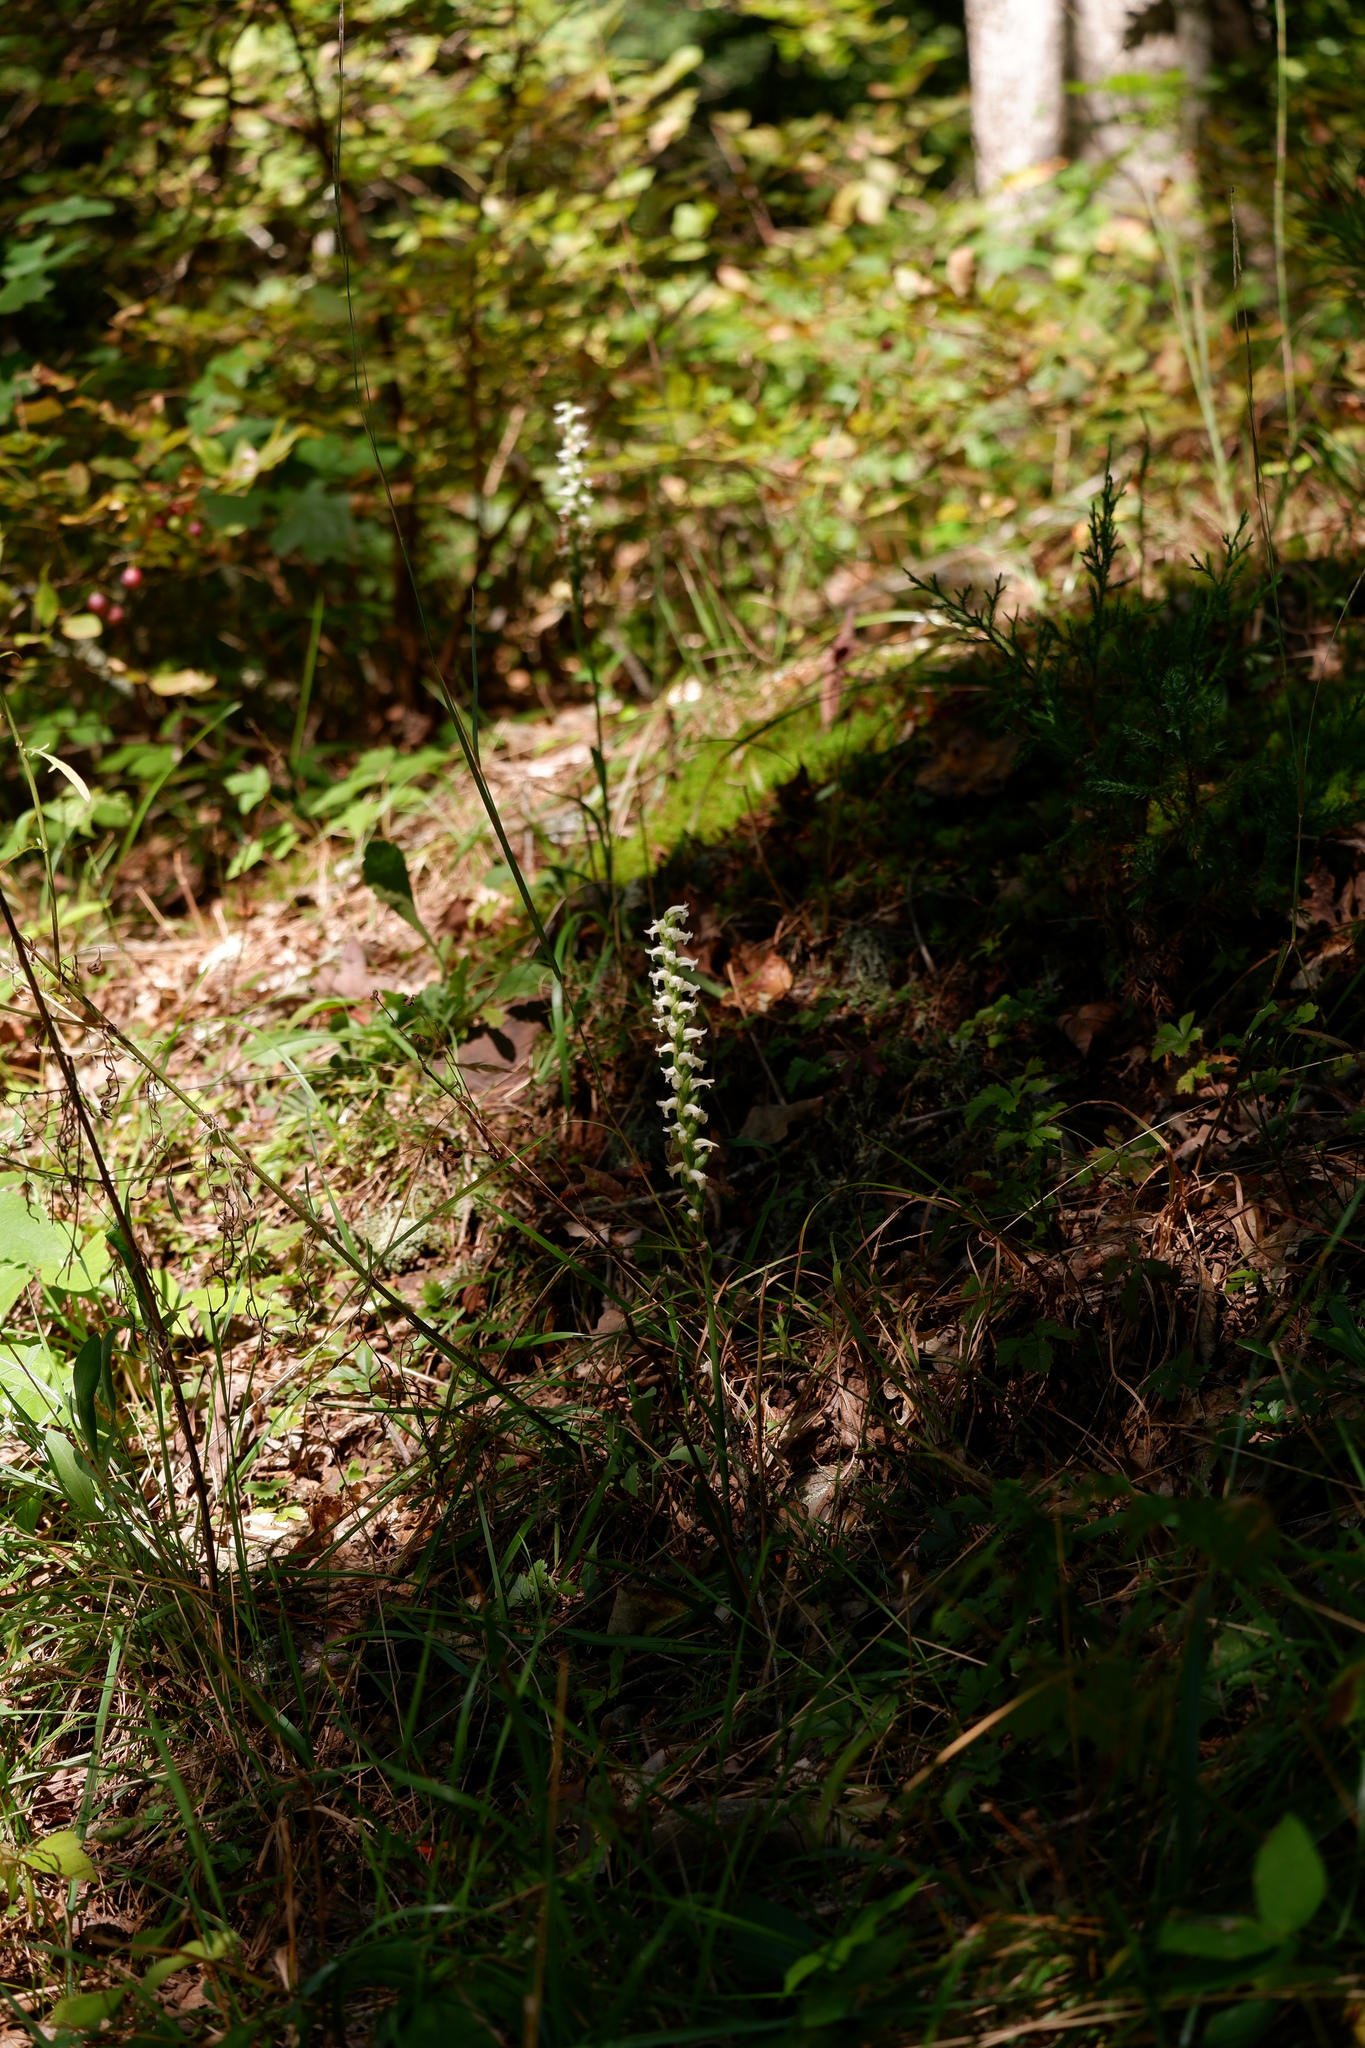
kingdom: Plantae
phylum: Tracheophyta
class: Liliopsida
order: Asparagales
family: Orchidaceae
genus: Spiranthes
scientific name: Spiranthes ochroleuca
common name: Yellow ladies'-tresses
